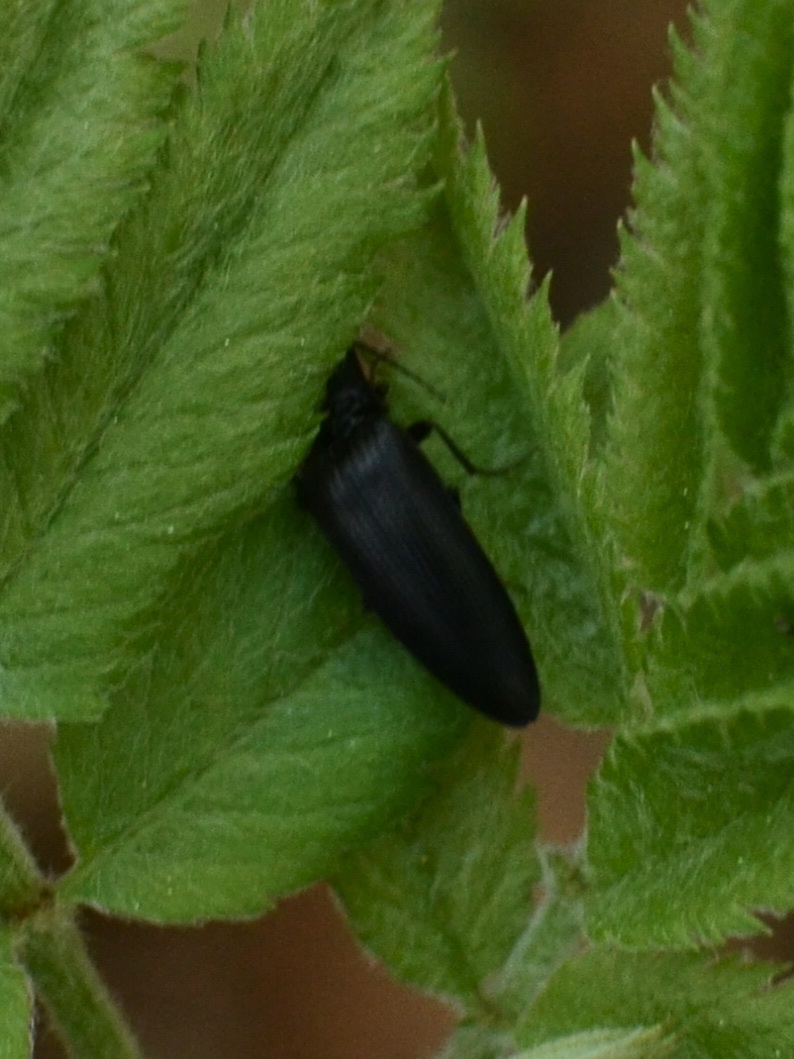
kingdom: Animalia
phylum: Arthropoda
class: Insecta
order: Coleoptera
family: Elateridae
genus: Ectinus
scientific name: Ectinus aterrimus
